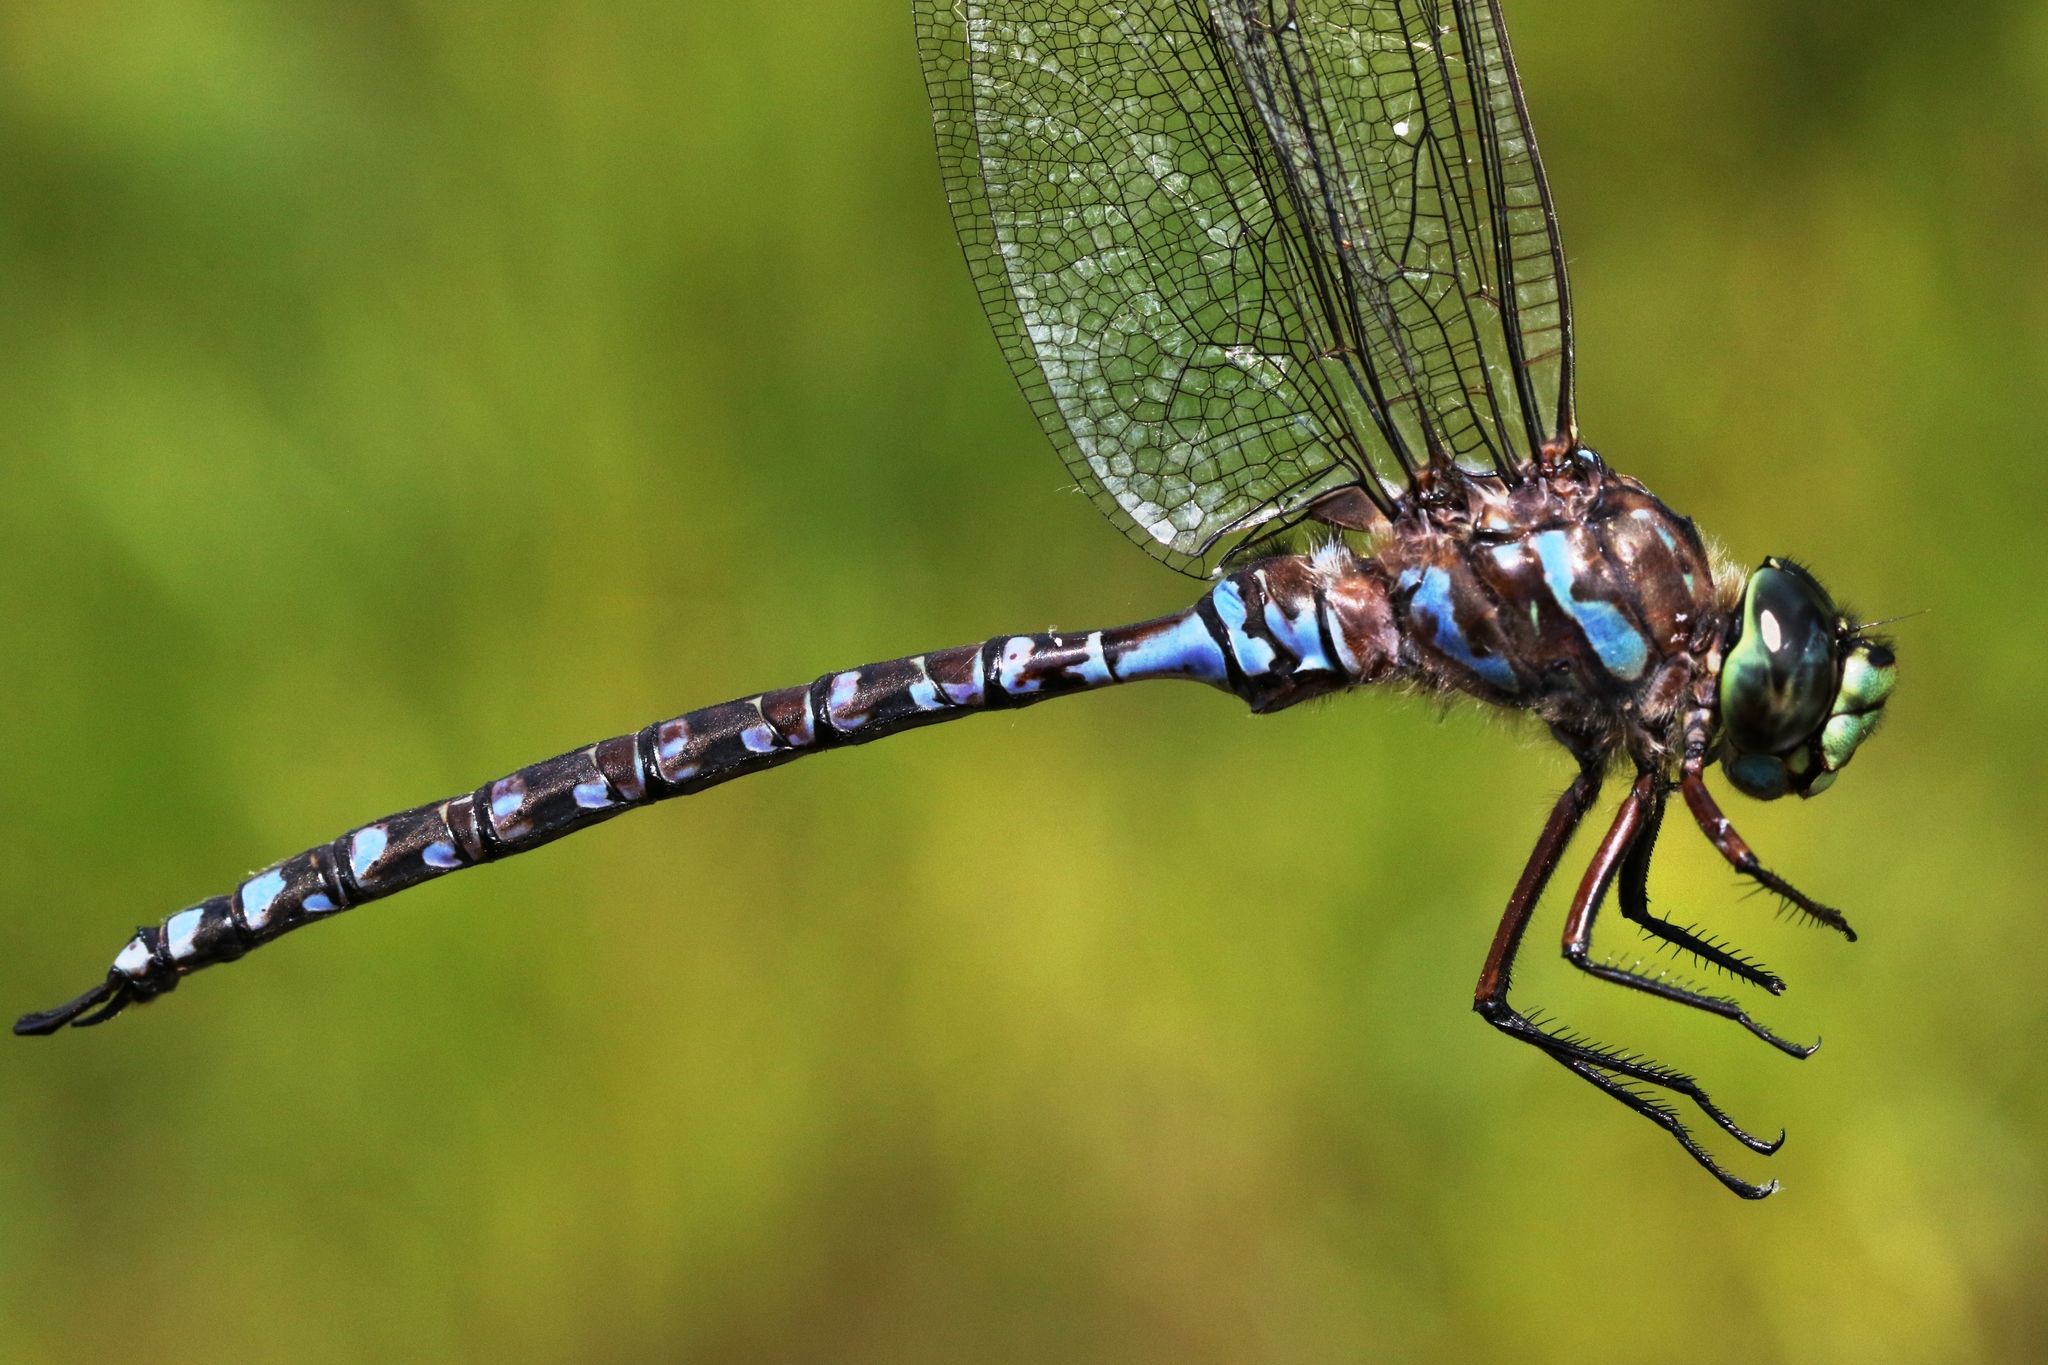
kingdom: Animalia
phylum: Arthropoda
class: Insecta
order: Odonata
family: Aeshnidae
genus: Aeshna
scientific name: Aeshna eremita
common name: Lake darner
